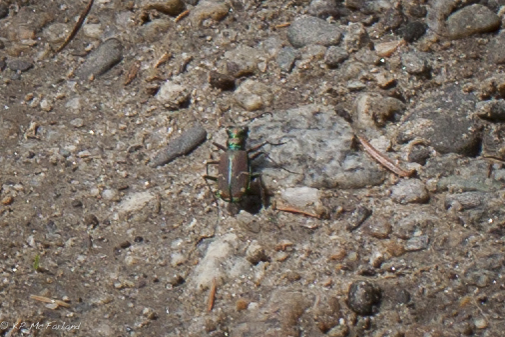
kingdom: Animalia
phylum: Arthropoda
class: Insecta
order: Coleoptera
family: Carabidae
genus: Cicindela
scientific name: Cicindela limbalis
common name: Common claybank tiger beetle
